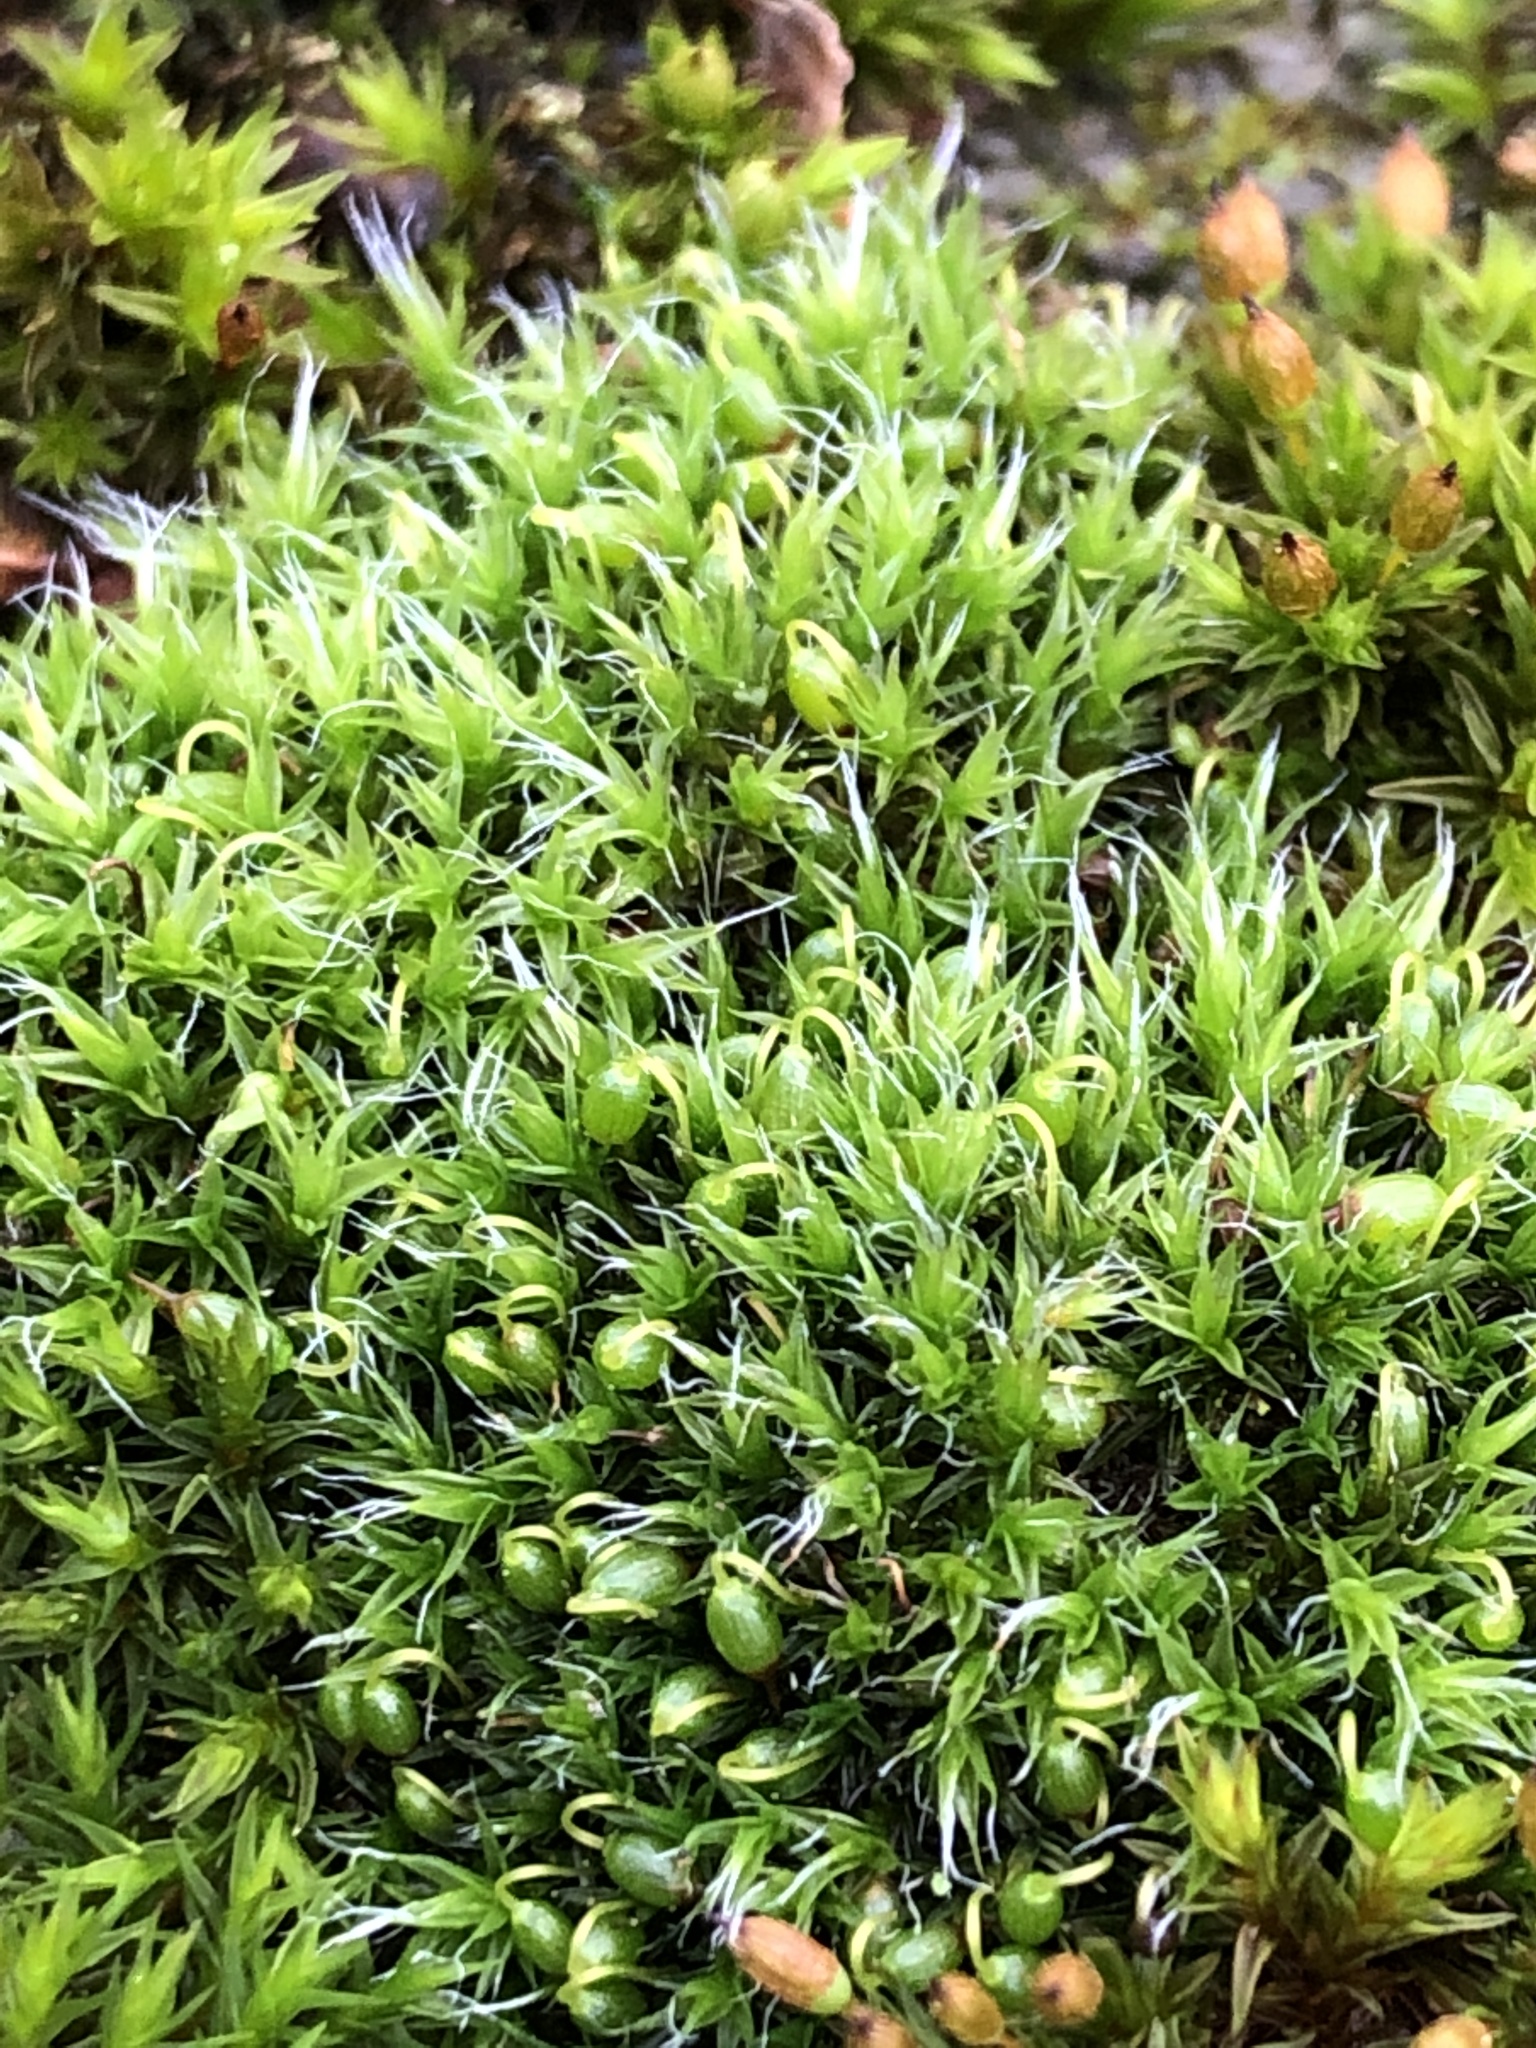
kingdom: Plantae
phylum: Bryophyta
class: Bryopsida
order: Grimmiales
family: Grimmiaceae
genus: Grimmia
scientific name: Grimmia pulvinata
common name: Grey-cushioned grimmia
